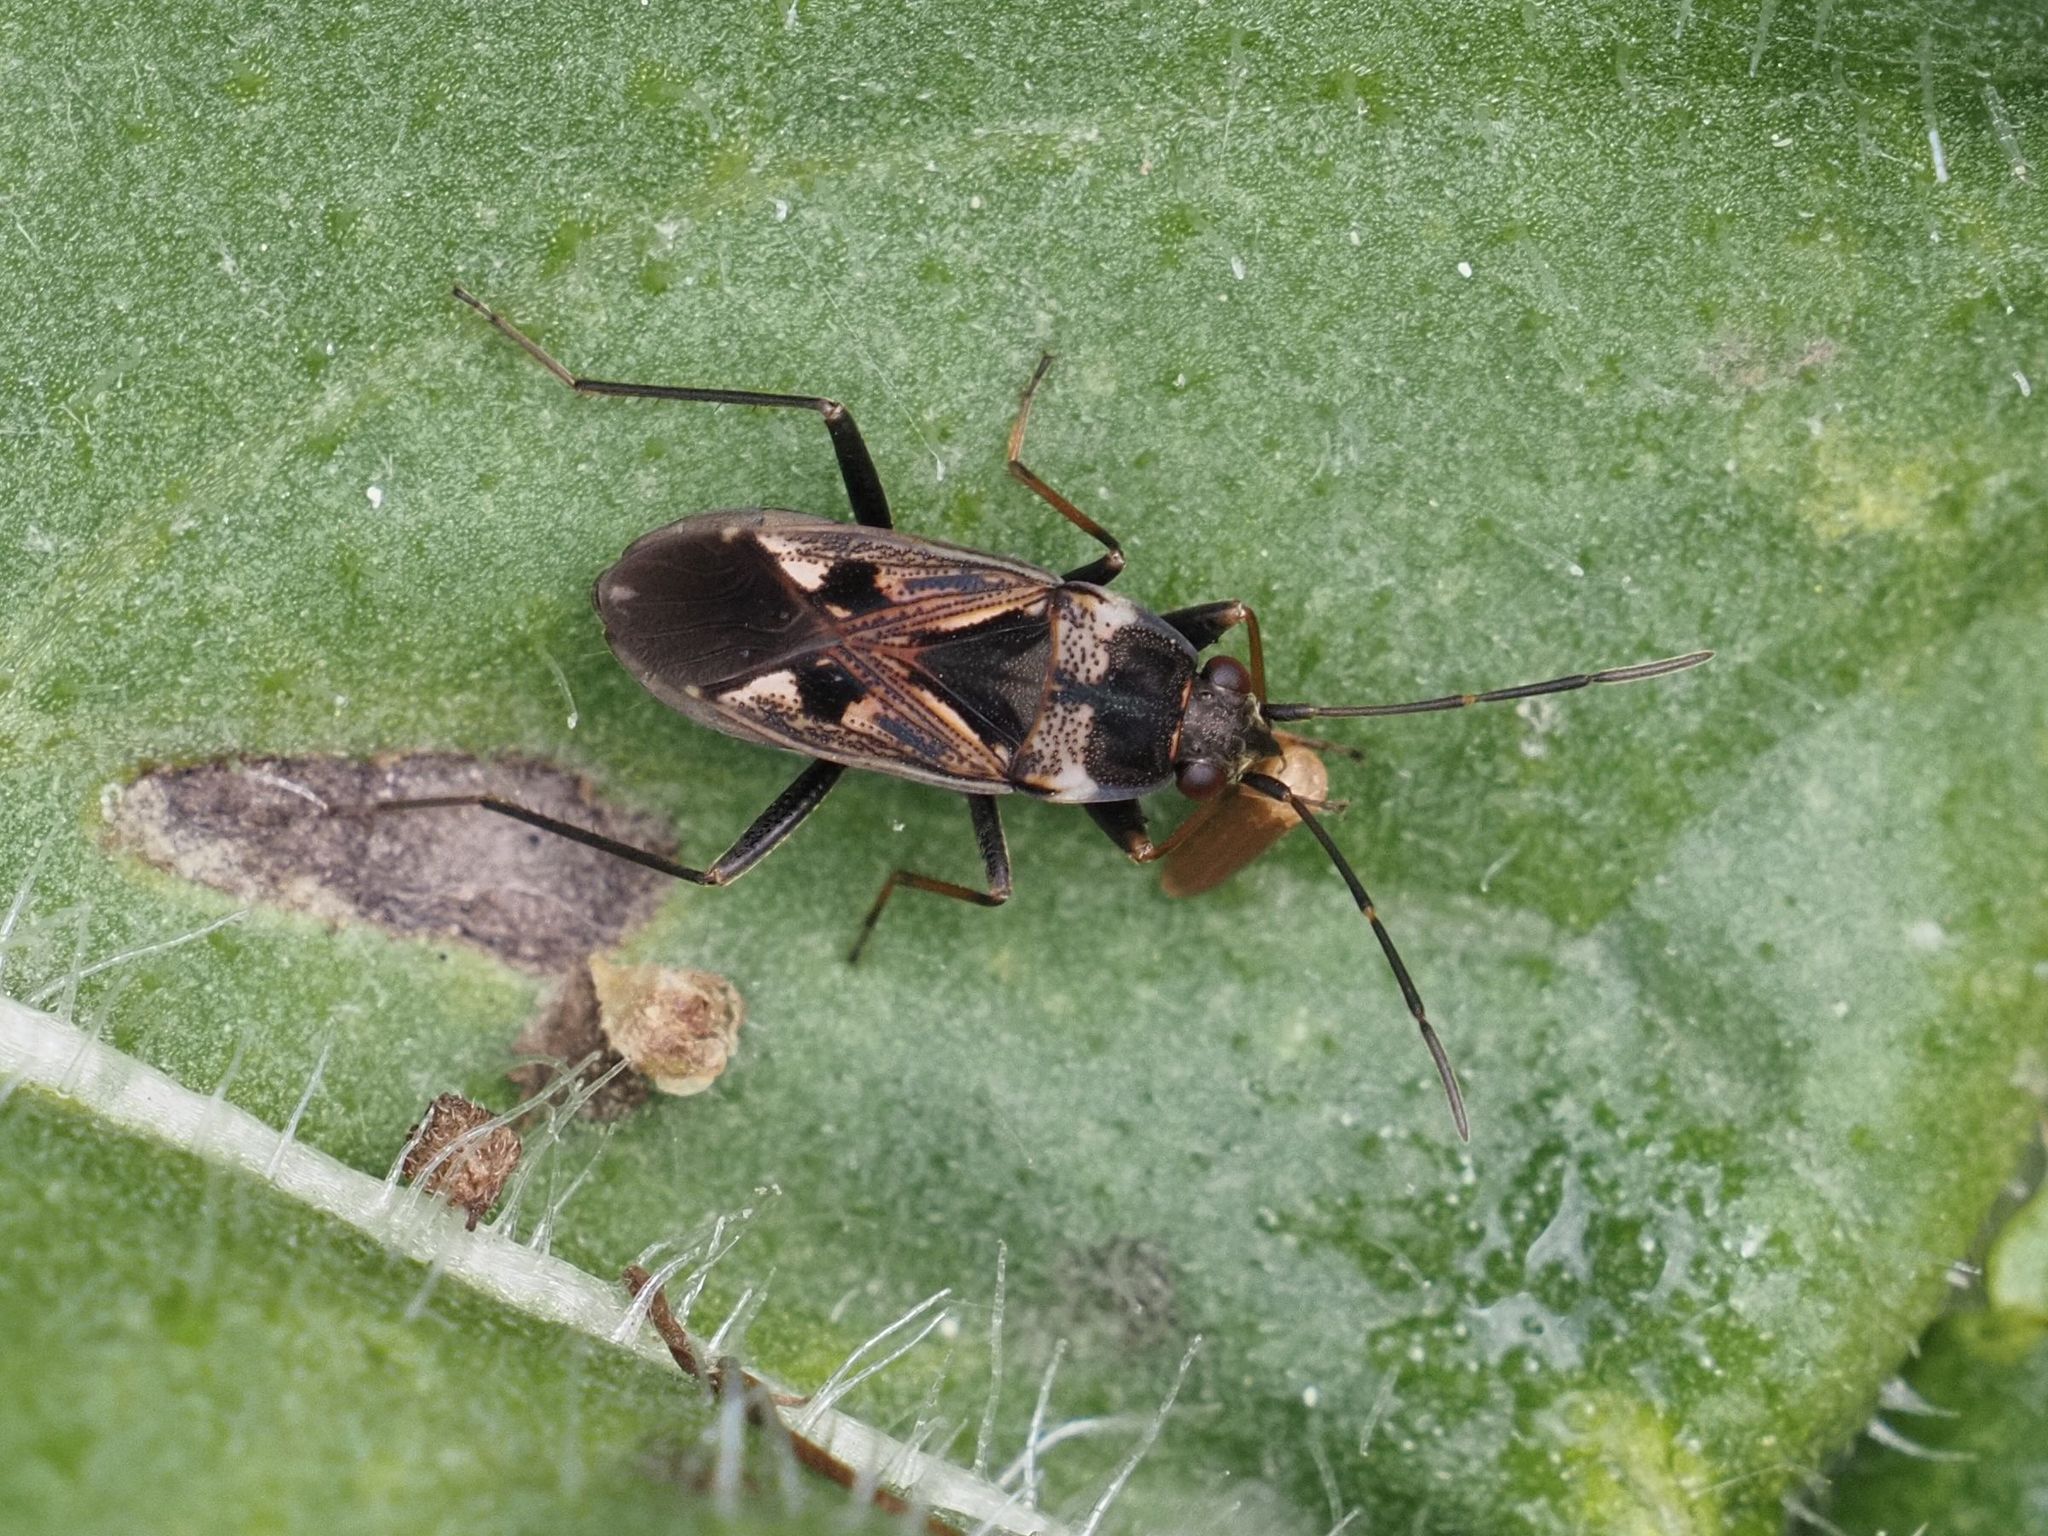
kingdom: Animalia
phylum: Arthropoda
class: Insecta
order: Hemiptera
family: Rhyparochromidae
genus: Rhyparochromus
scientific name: Rhyparochromus vulgaris
